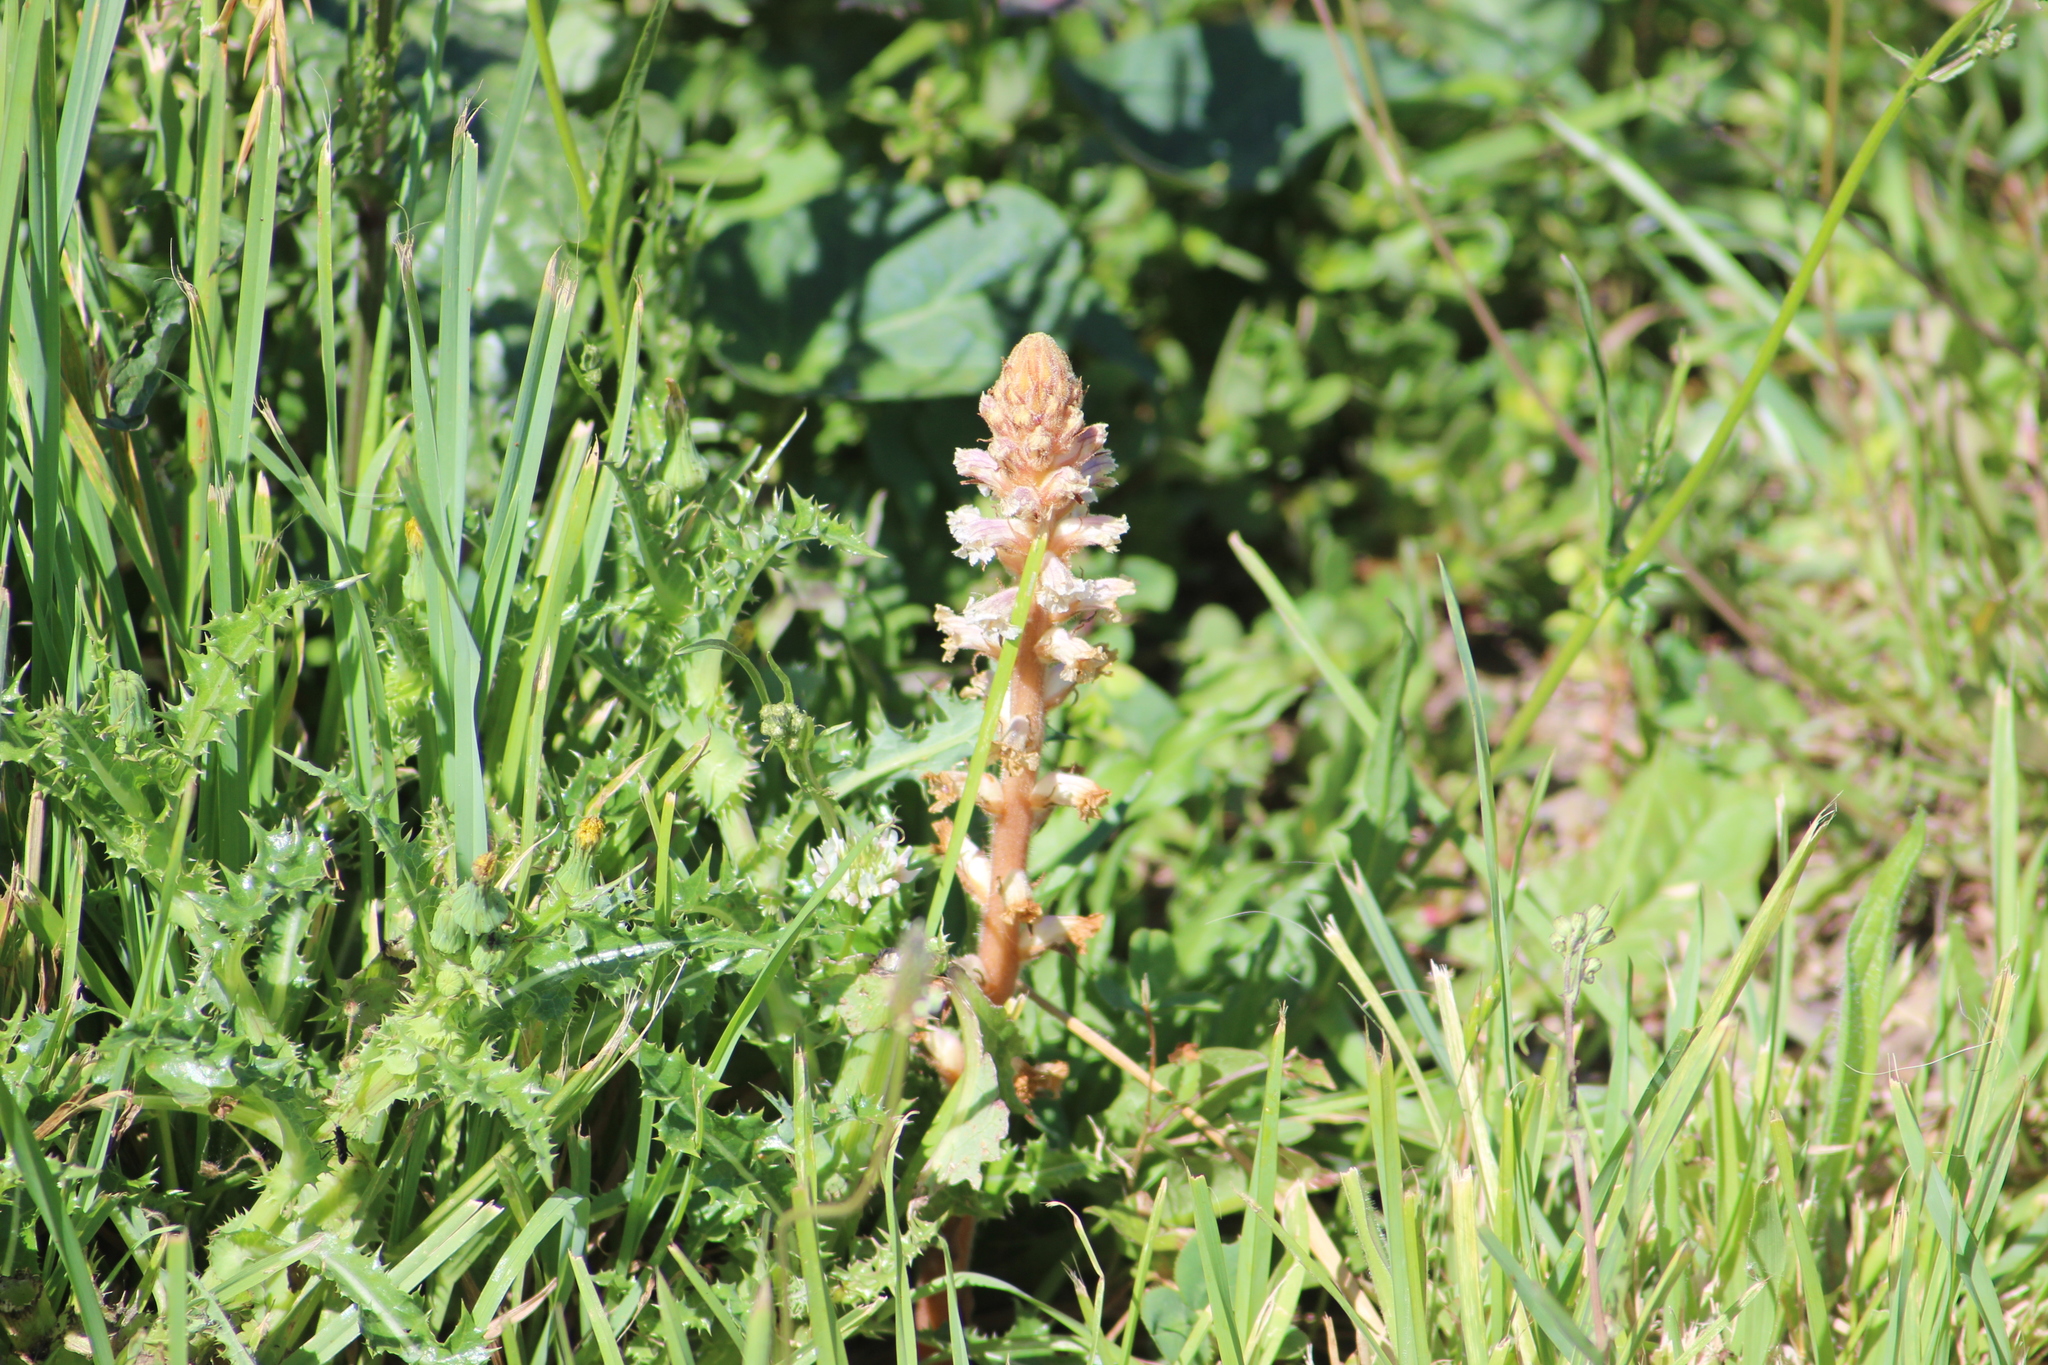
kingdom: Plantae
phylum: Tracheophyta
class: Magnoliopsida
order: Lamiales
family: Orobanchaceae
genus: Orobanche
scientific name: Orobanche minor
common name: Common broomrape
